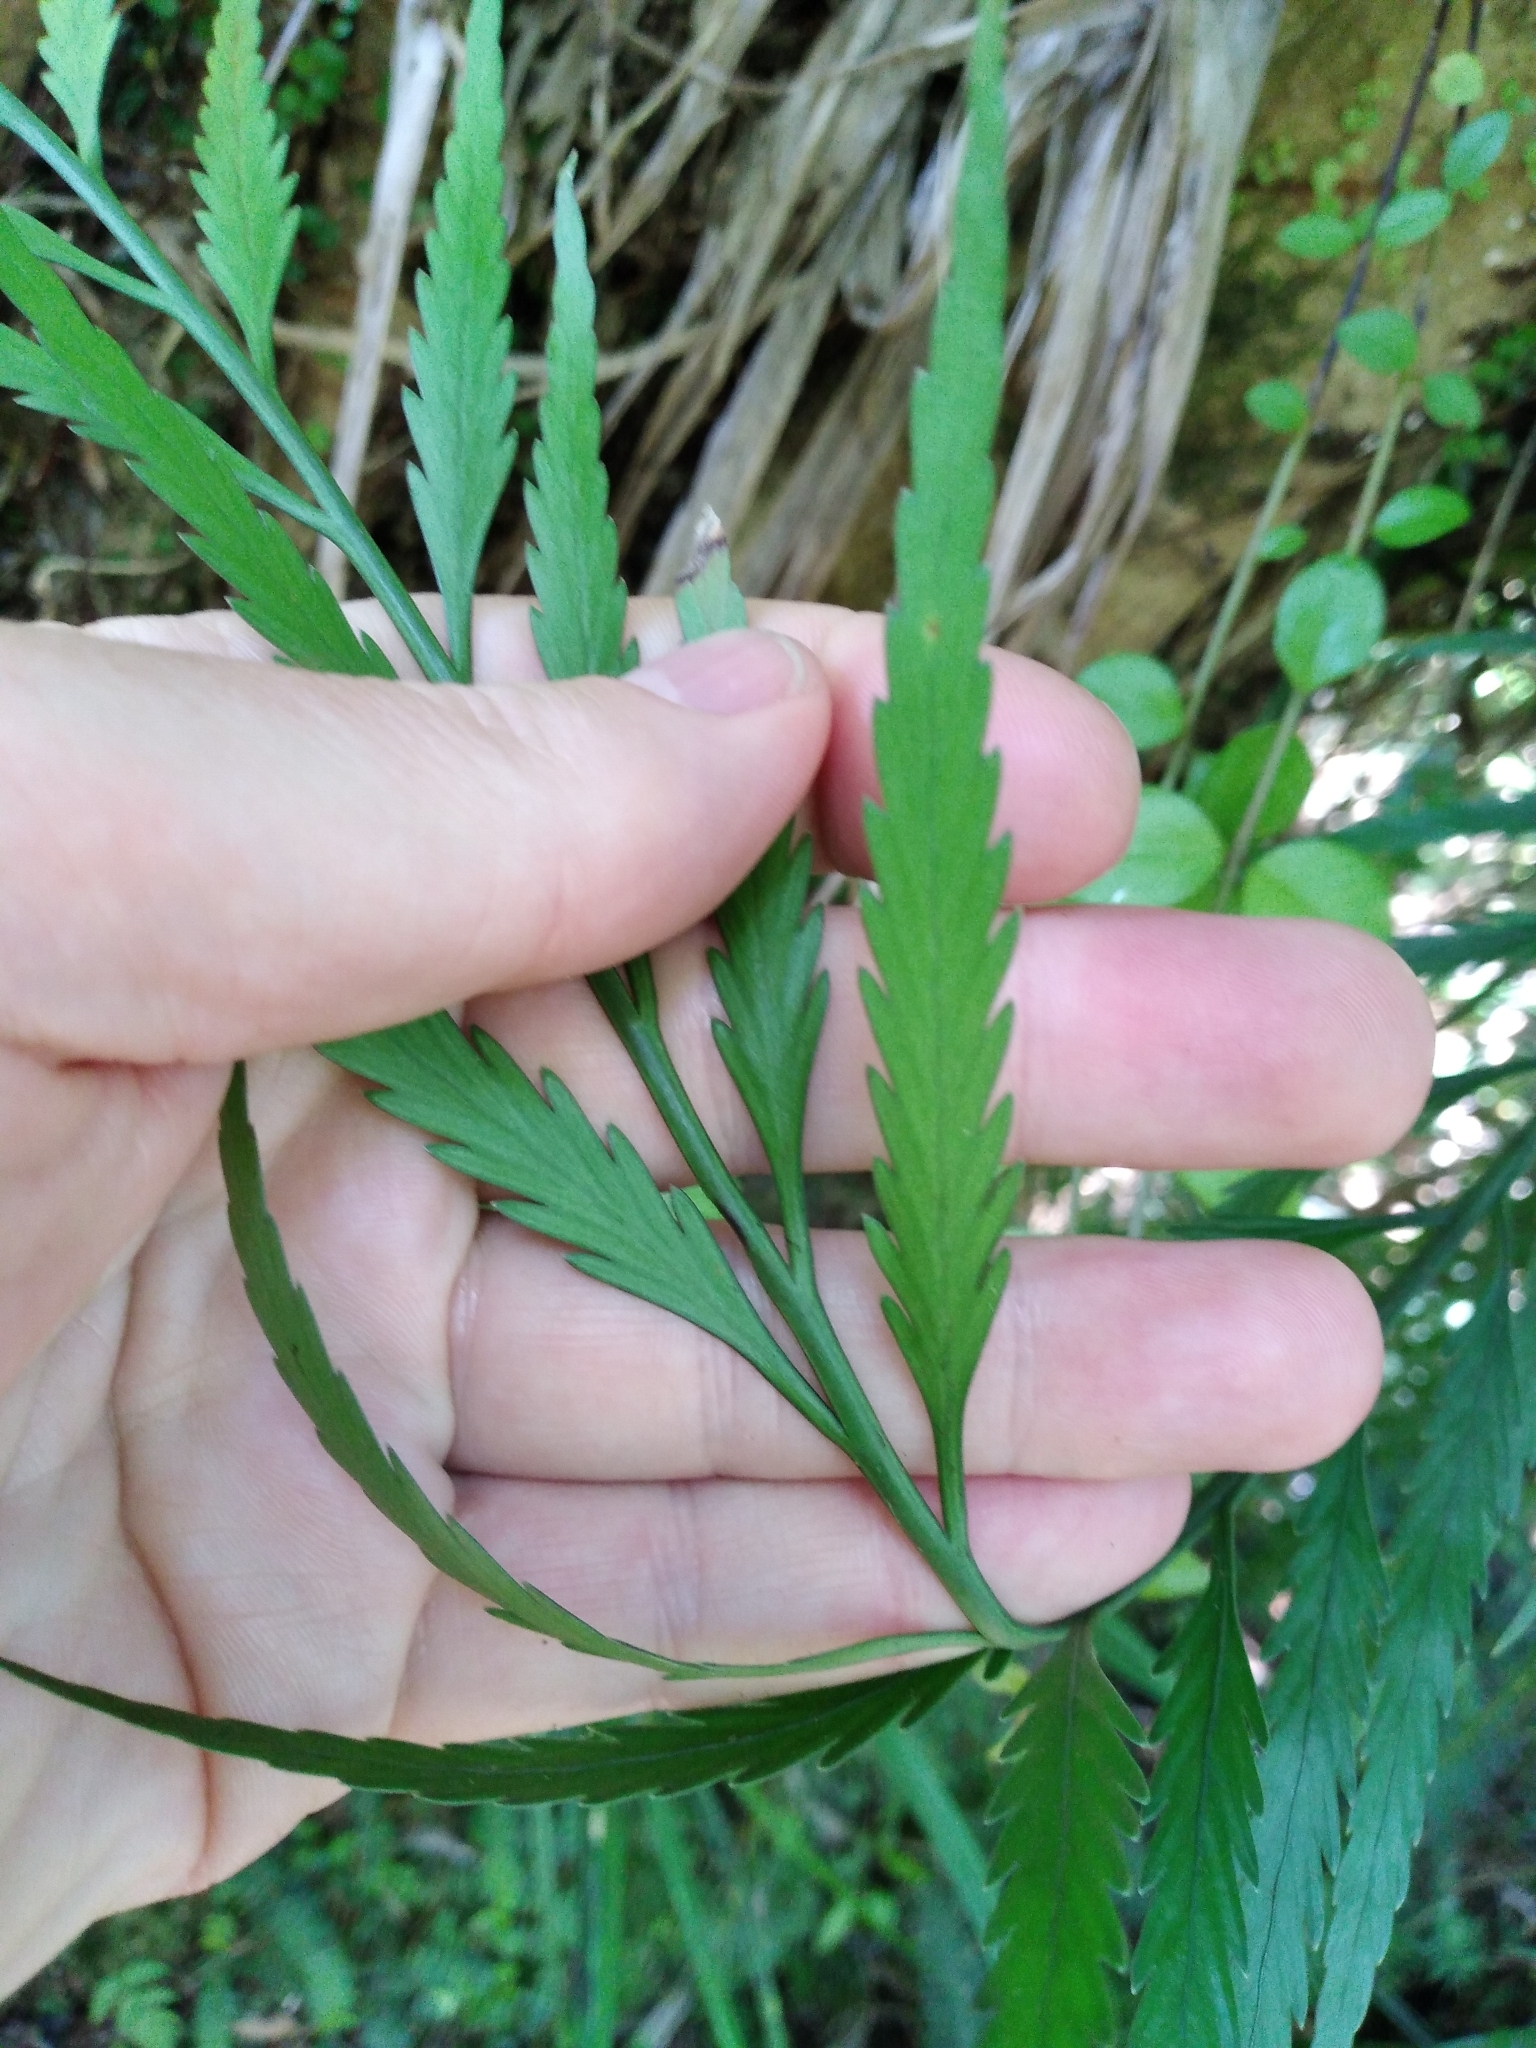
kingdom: Plantae
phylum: Tracheophyta
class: Polypodiopsida
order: Polypodiales
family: Aspleniaceae
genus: Asplenium
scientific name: Asplenium flaccidum
